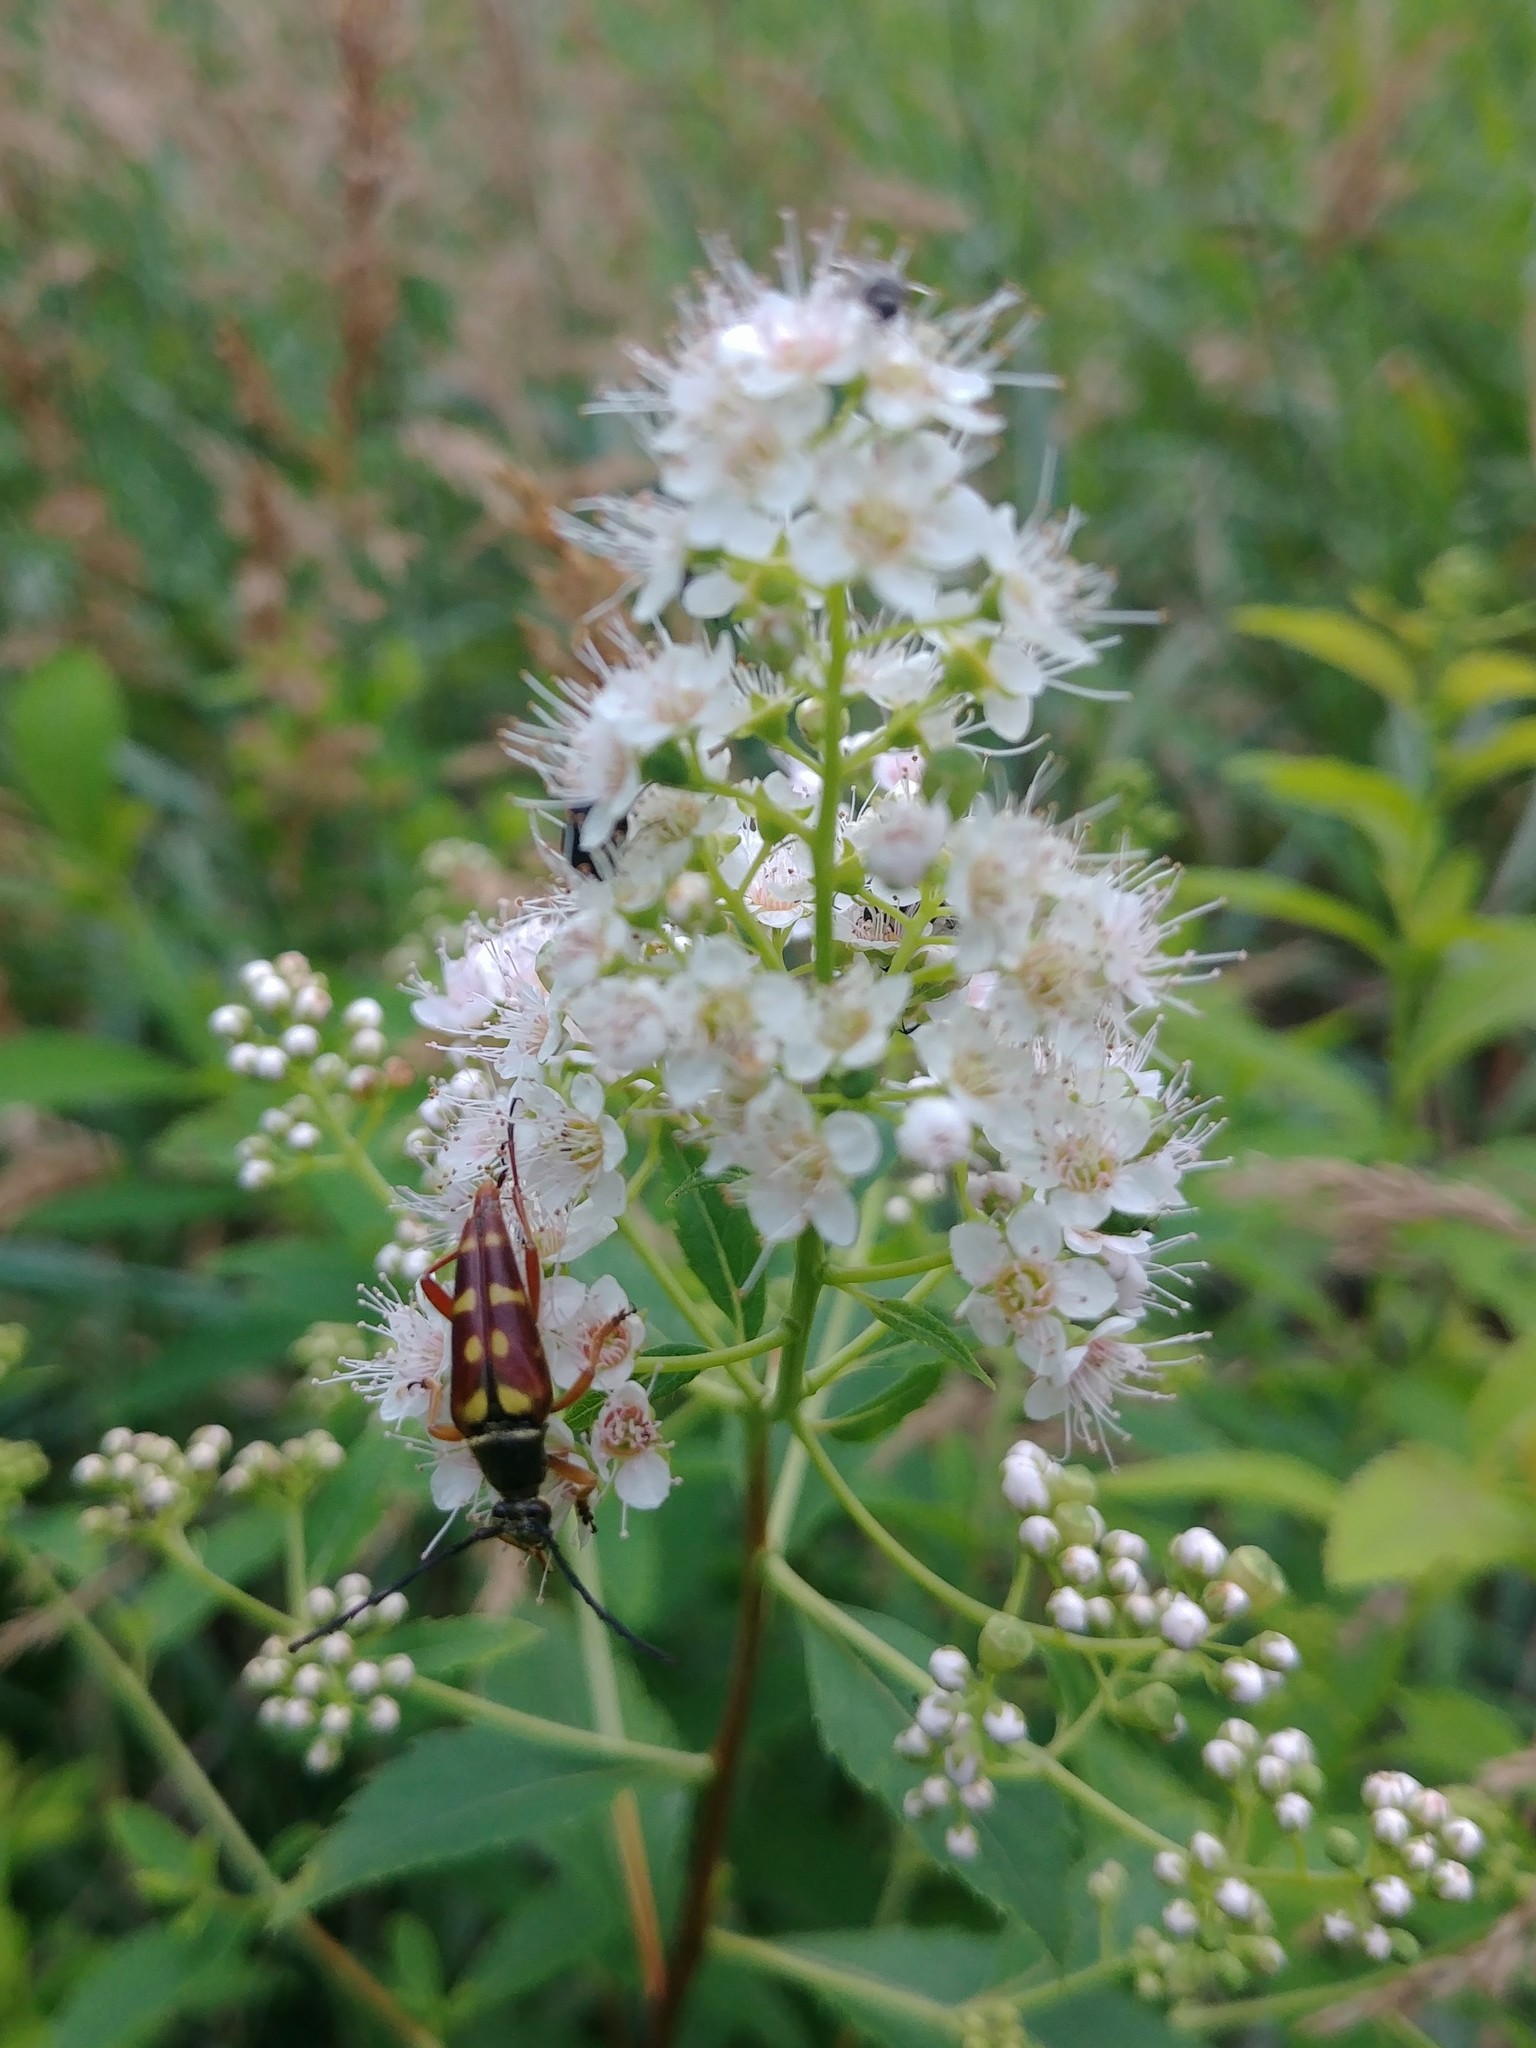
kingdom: Plantae
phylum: Tracheophyta
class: Magnoliopsida
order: Rosales
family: Rosaceae
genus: Spiraea
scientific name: Spiraea alba
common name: Pale bridewort
